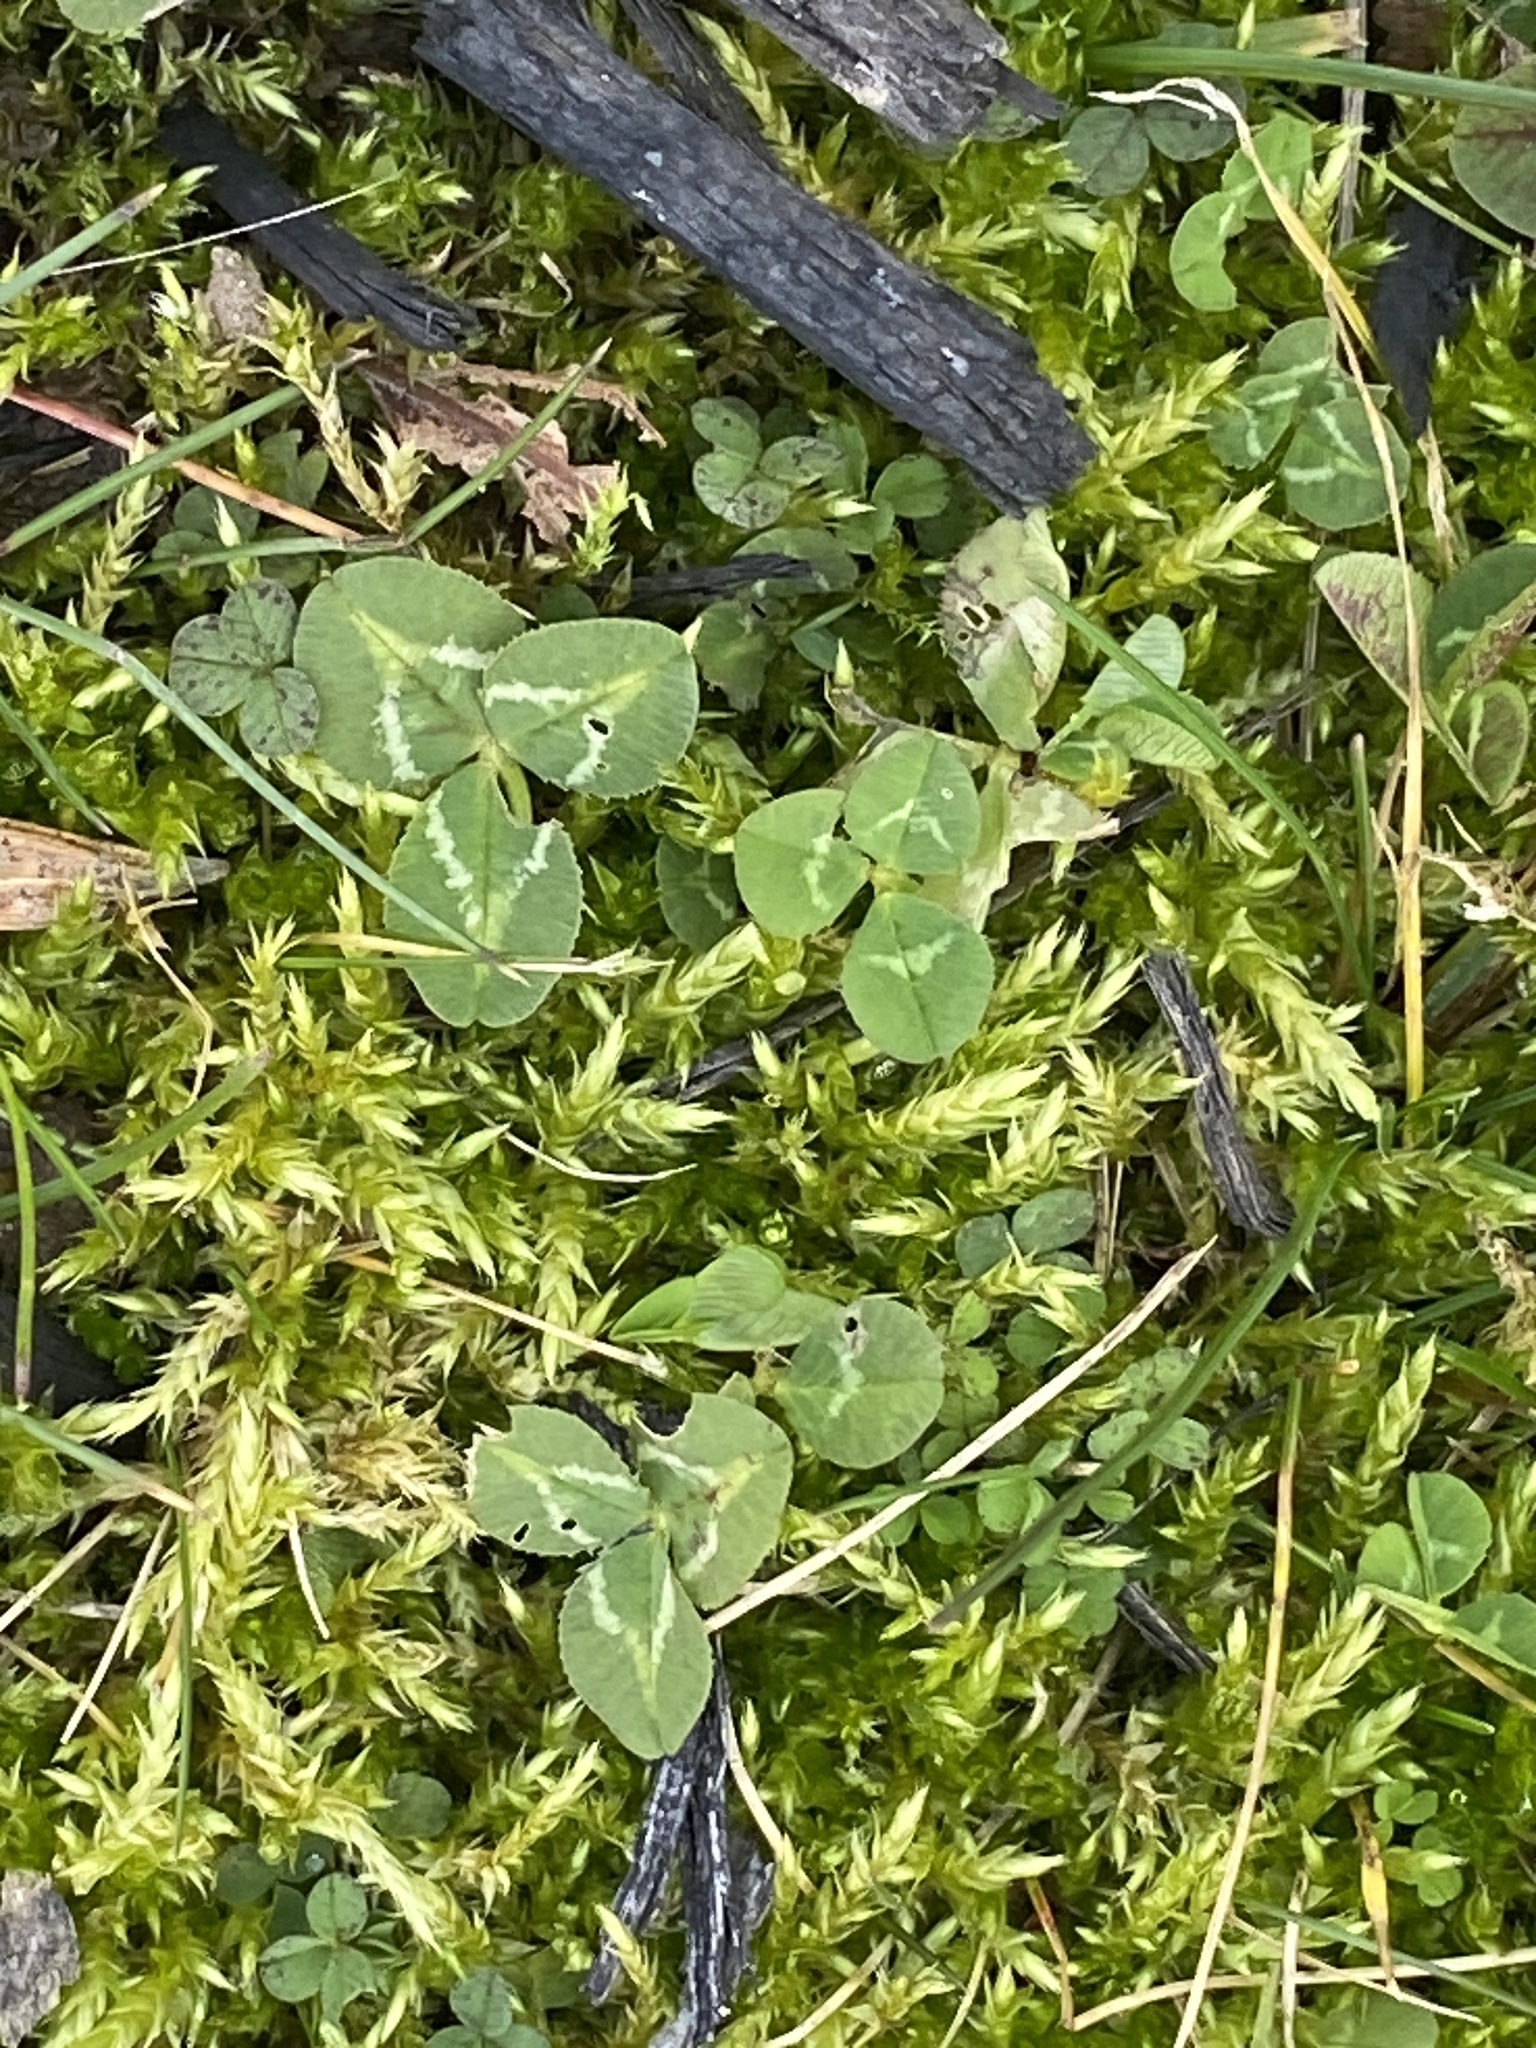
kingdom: Plantae
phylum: Tracheophyta
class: Magnoliopsida
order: Fabales
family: Fabaceae
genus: Trifolium
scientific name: Trifolium repens
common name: White clover
